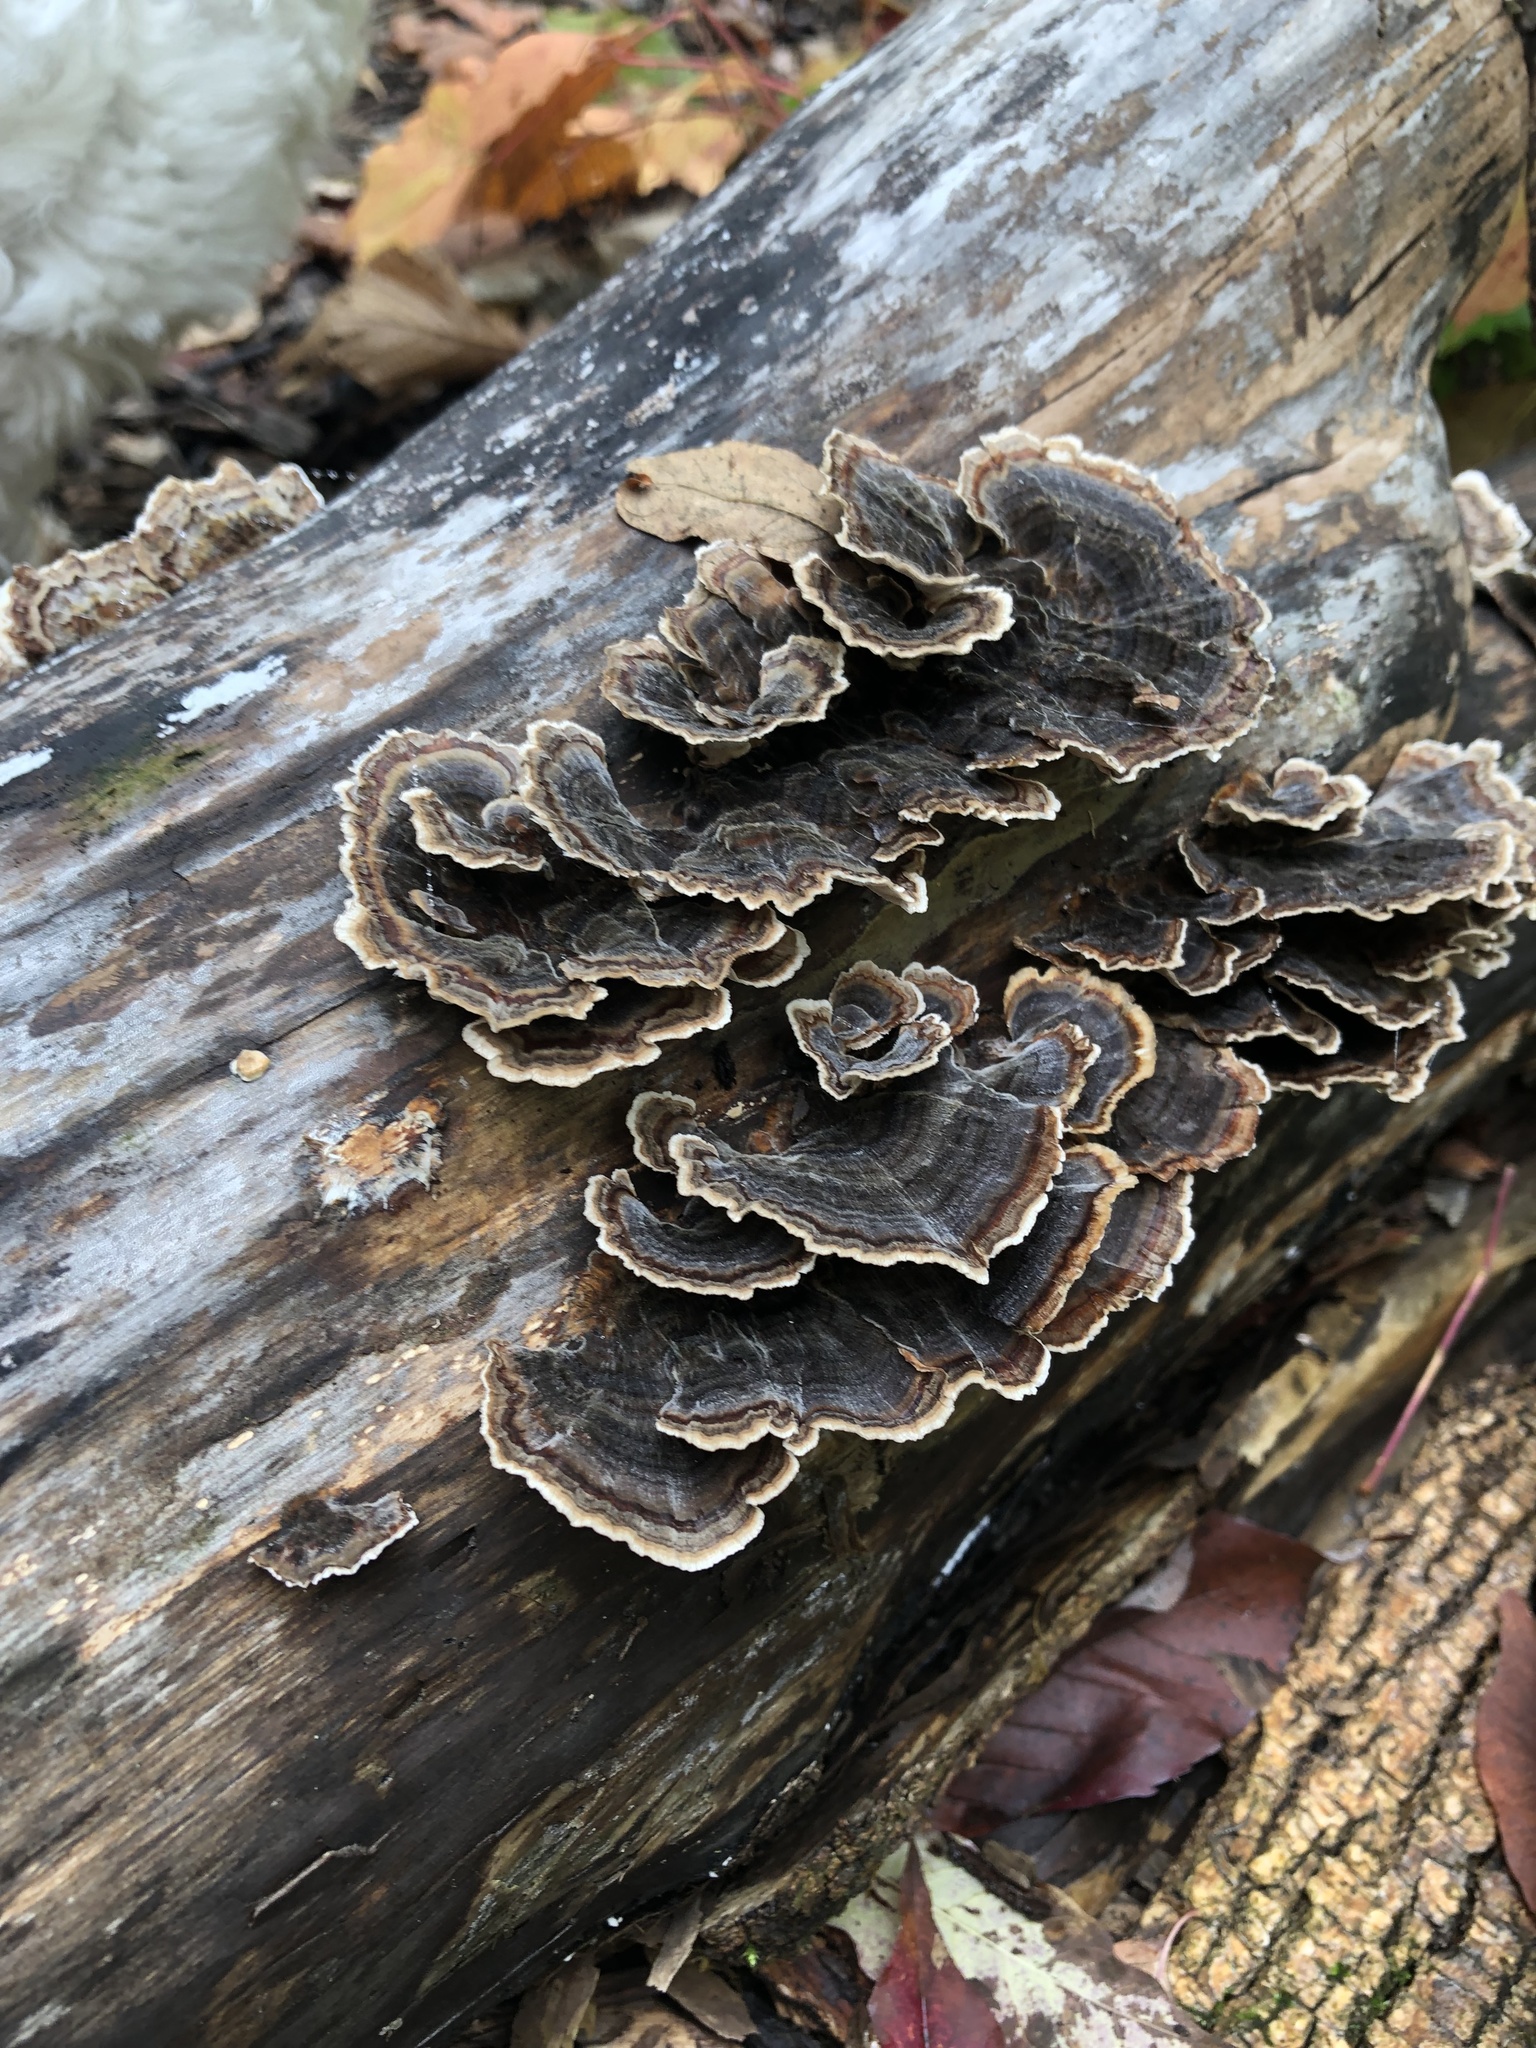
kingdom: Fungi
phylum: Basidiomycota
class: Agaricomycetes
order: Polyporales
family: Polyporaceae
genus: Trametes
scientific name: Trametes versicolor
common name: Turkeytail
